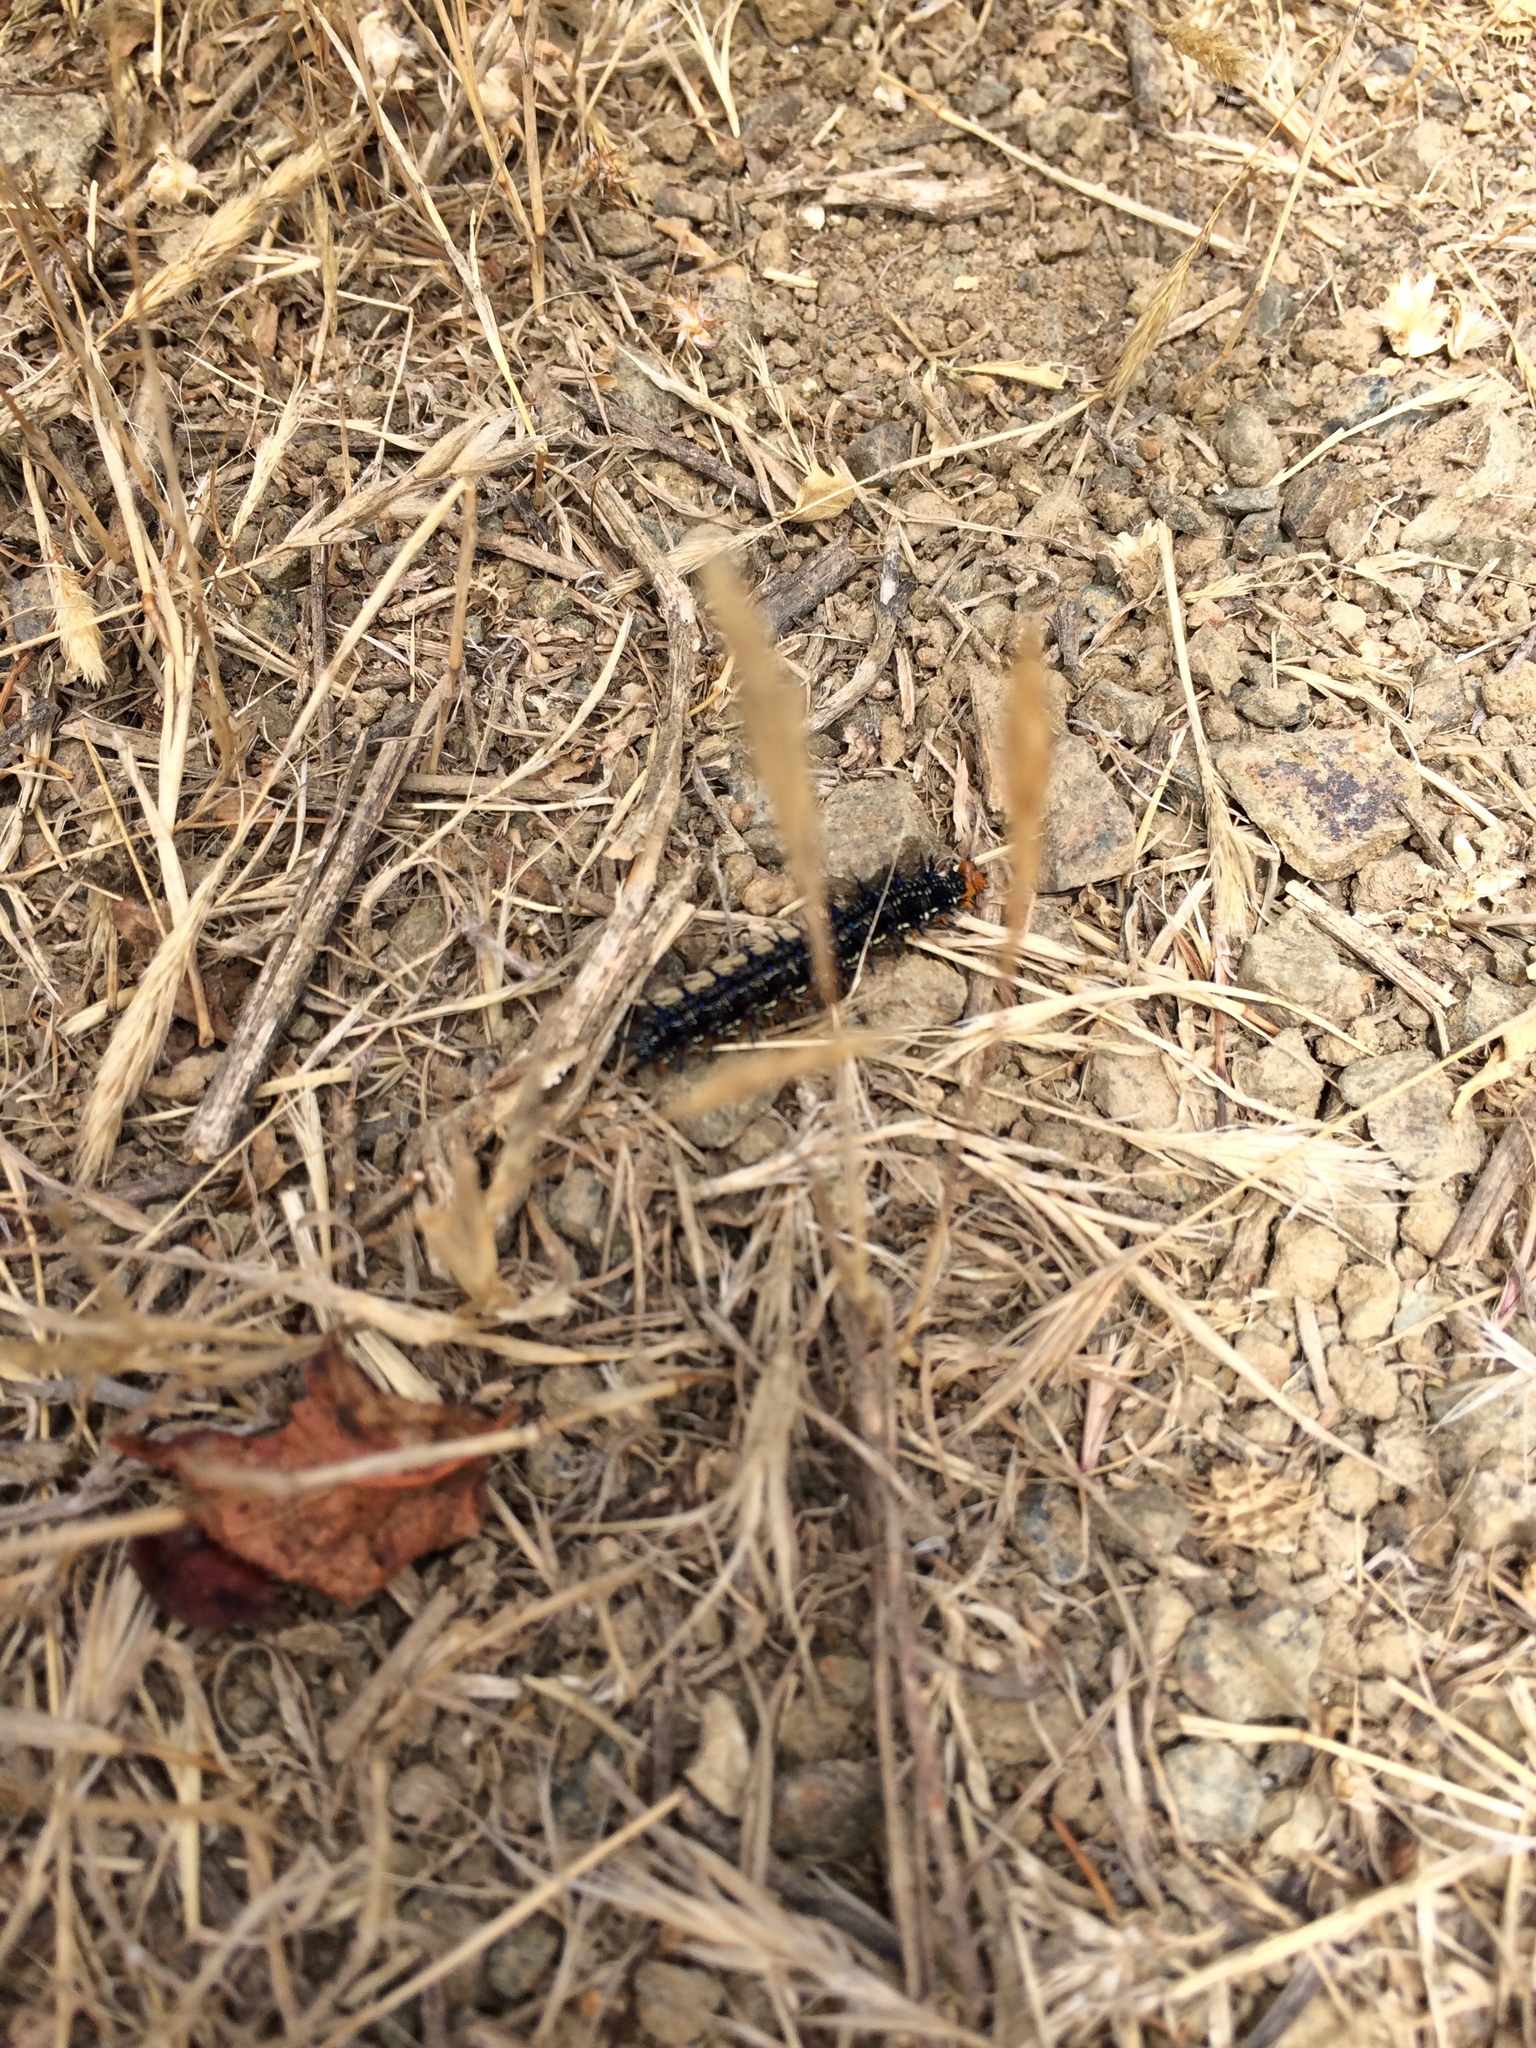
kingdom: Animalia
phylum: Arthropoda
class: Insecta
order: Lepidoptera
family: Nymphalidae
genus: Junonia
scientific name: Junonia grisea
